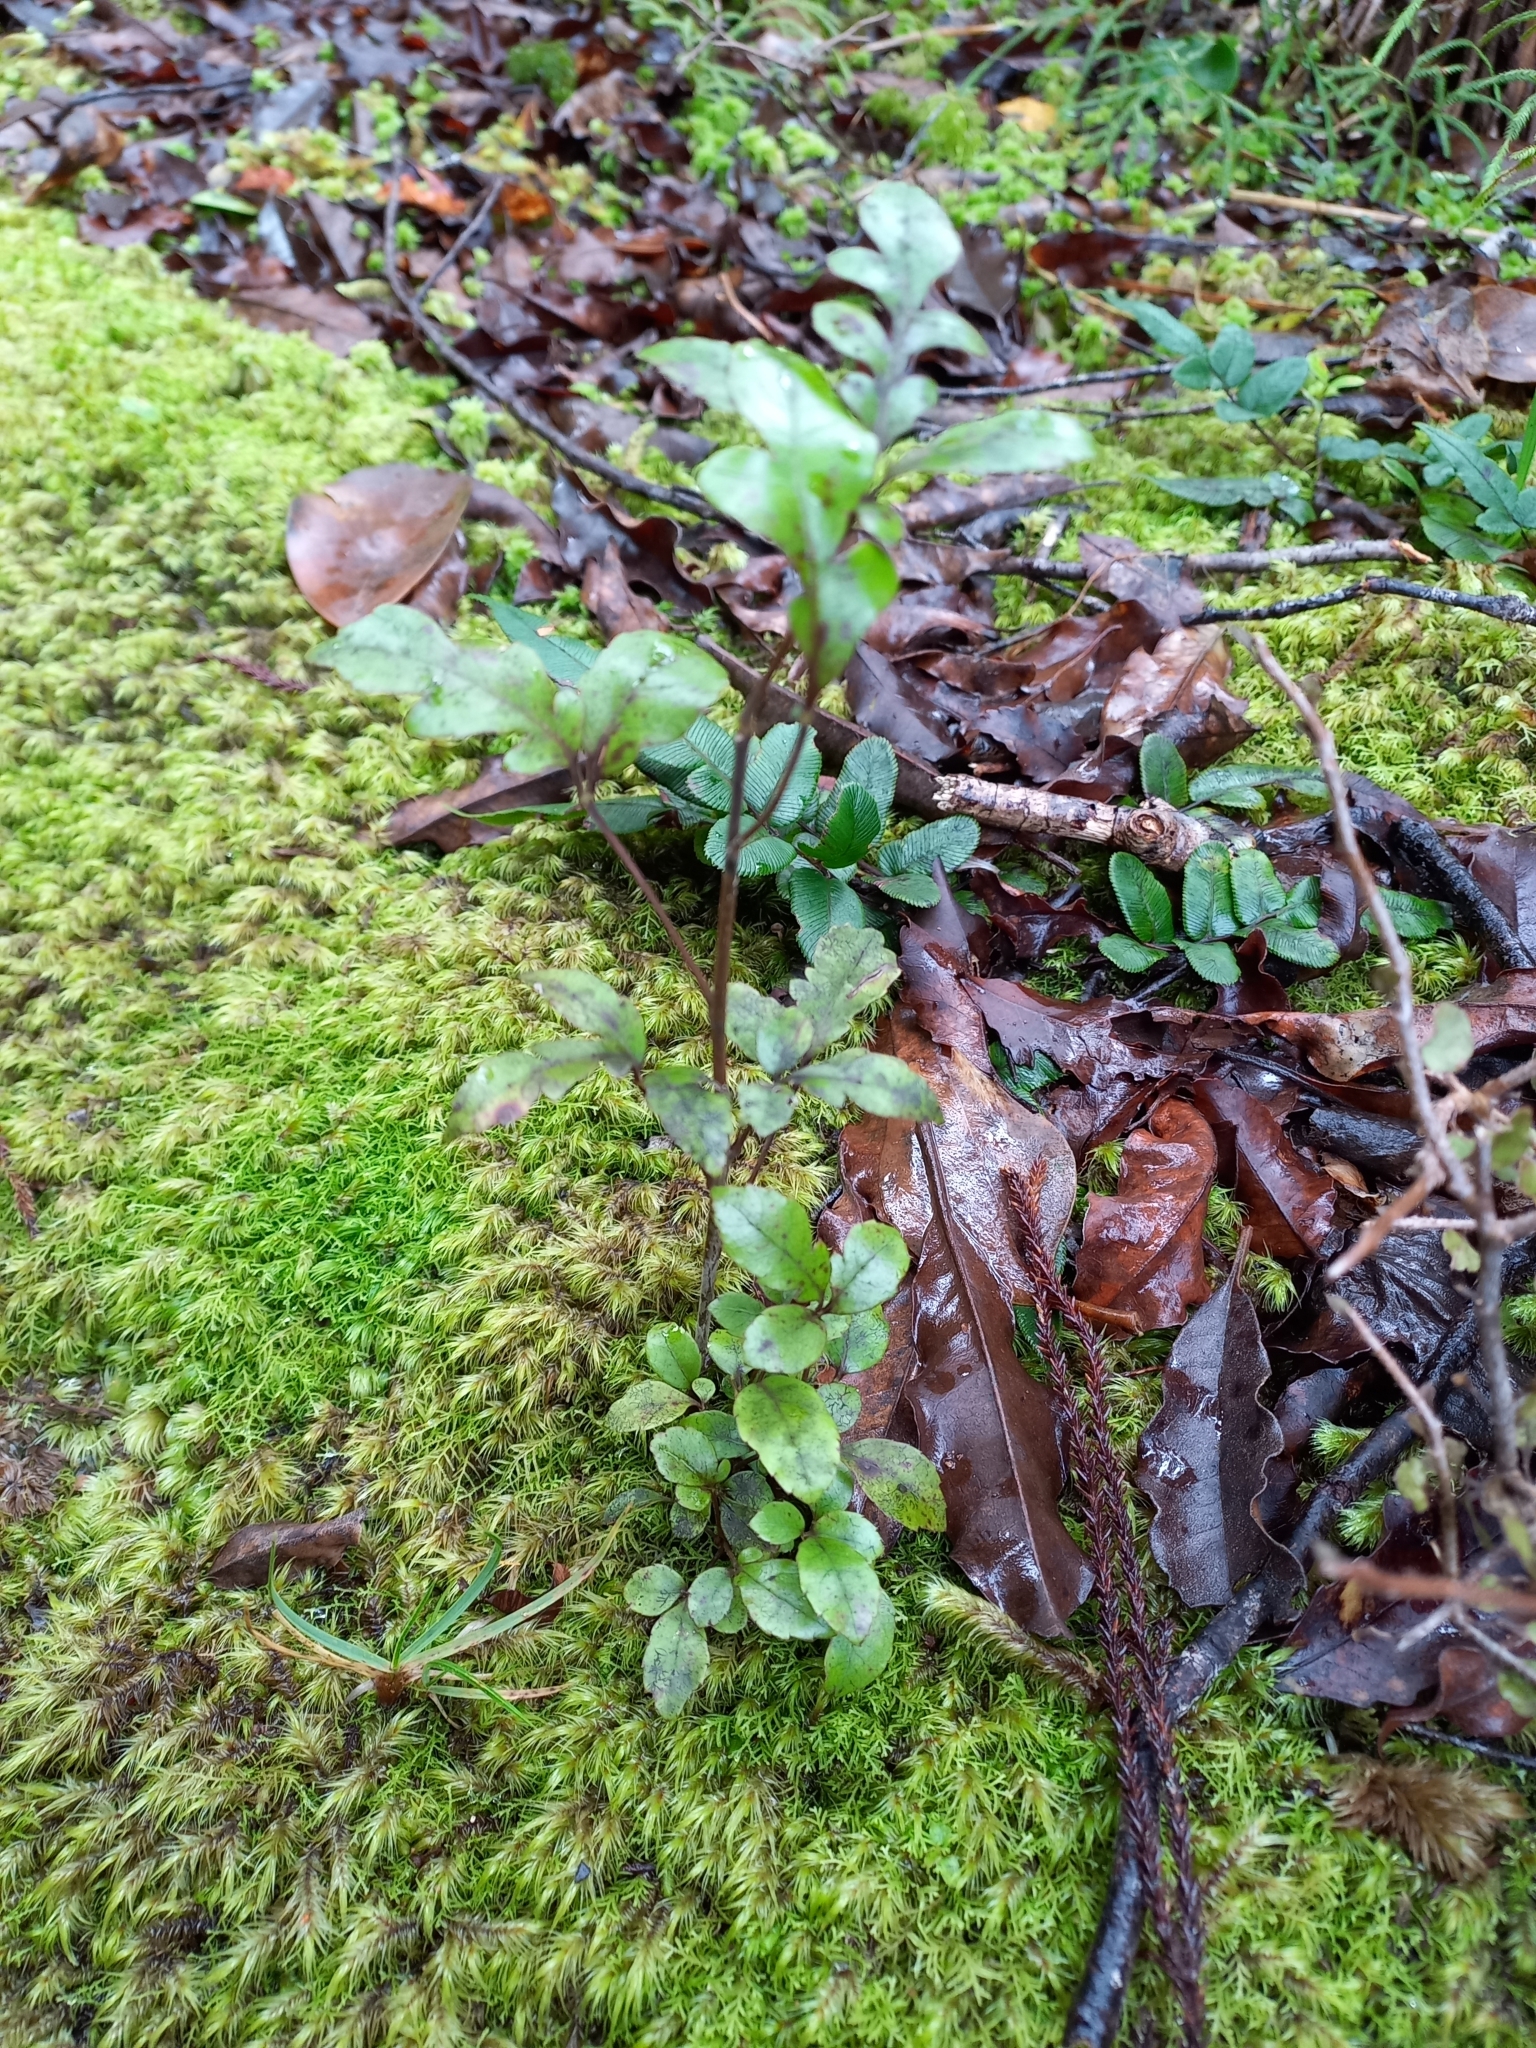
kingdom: Plantae
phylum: Tracheophyta
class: Magnoliopsida
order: Apiales
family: Araliaceae
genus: Raukaua
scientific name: Raukaua edgerleyi
